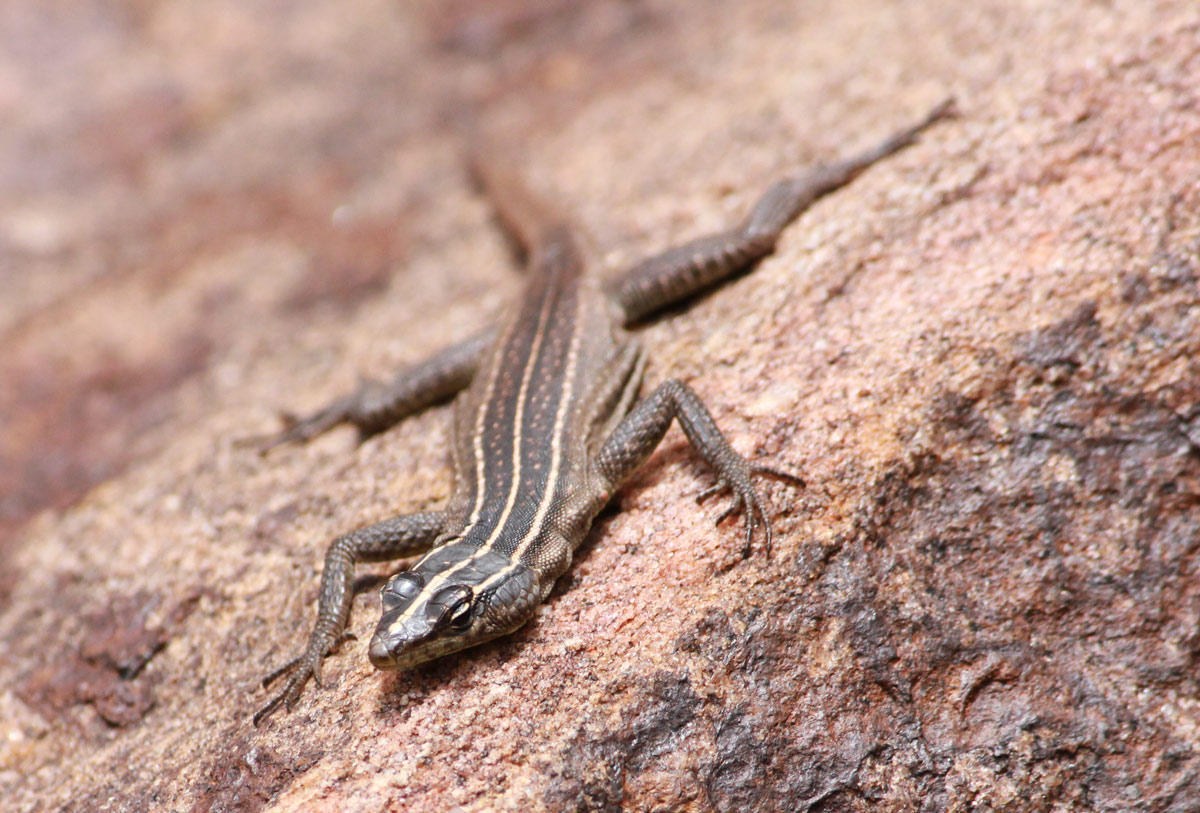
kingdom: Animalia
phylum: Chordata
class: Squamata
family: Cordylidae
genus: Platysaurus
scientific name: Platysaurus relictus
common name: Soutpansberg flat lizard
